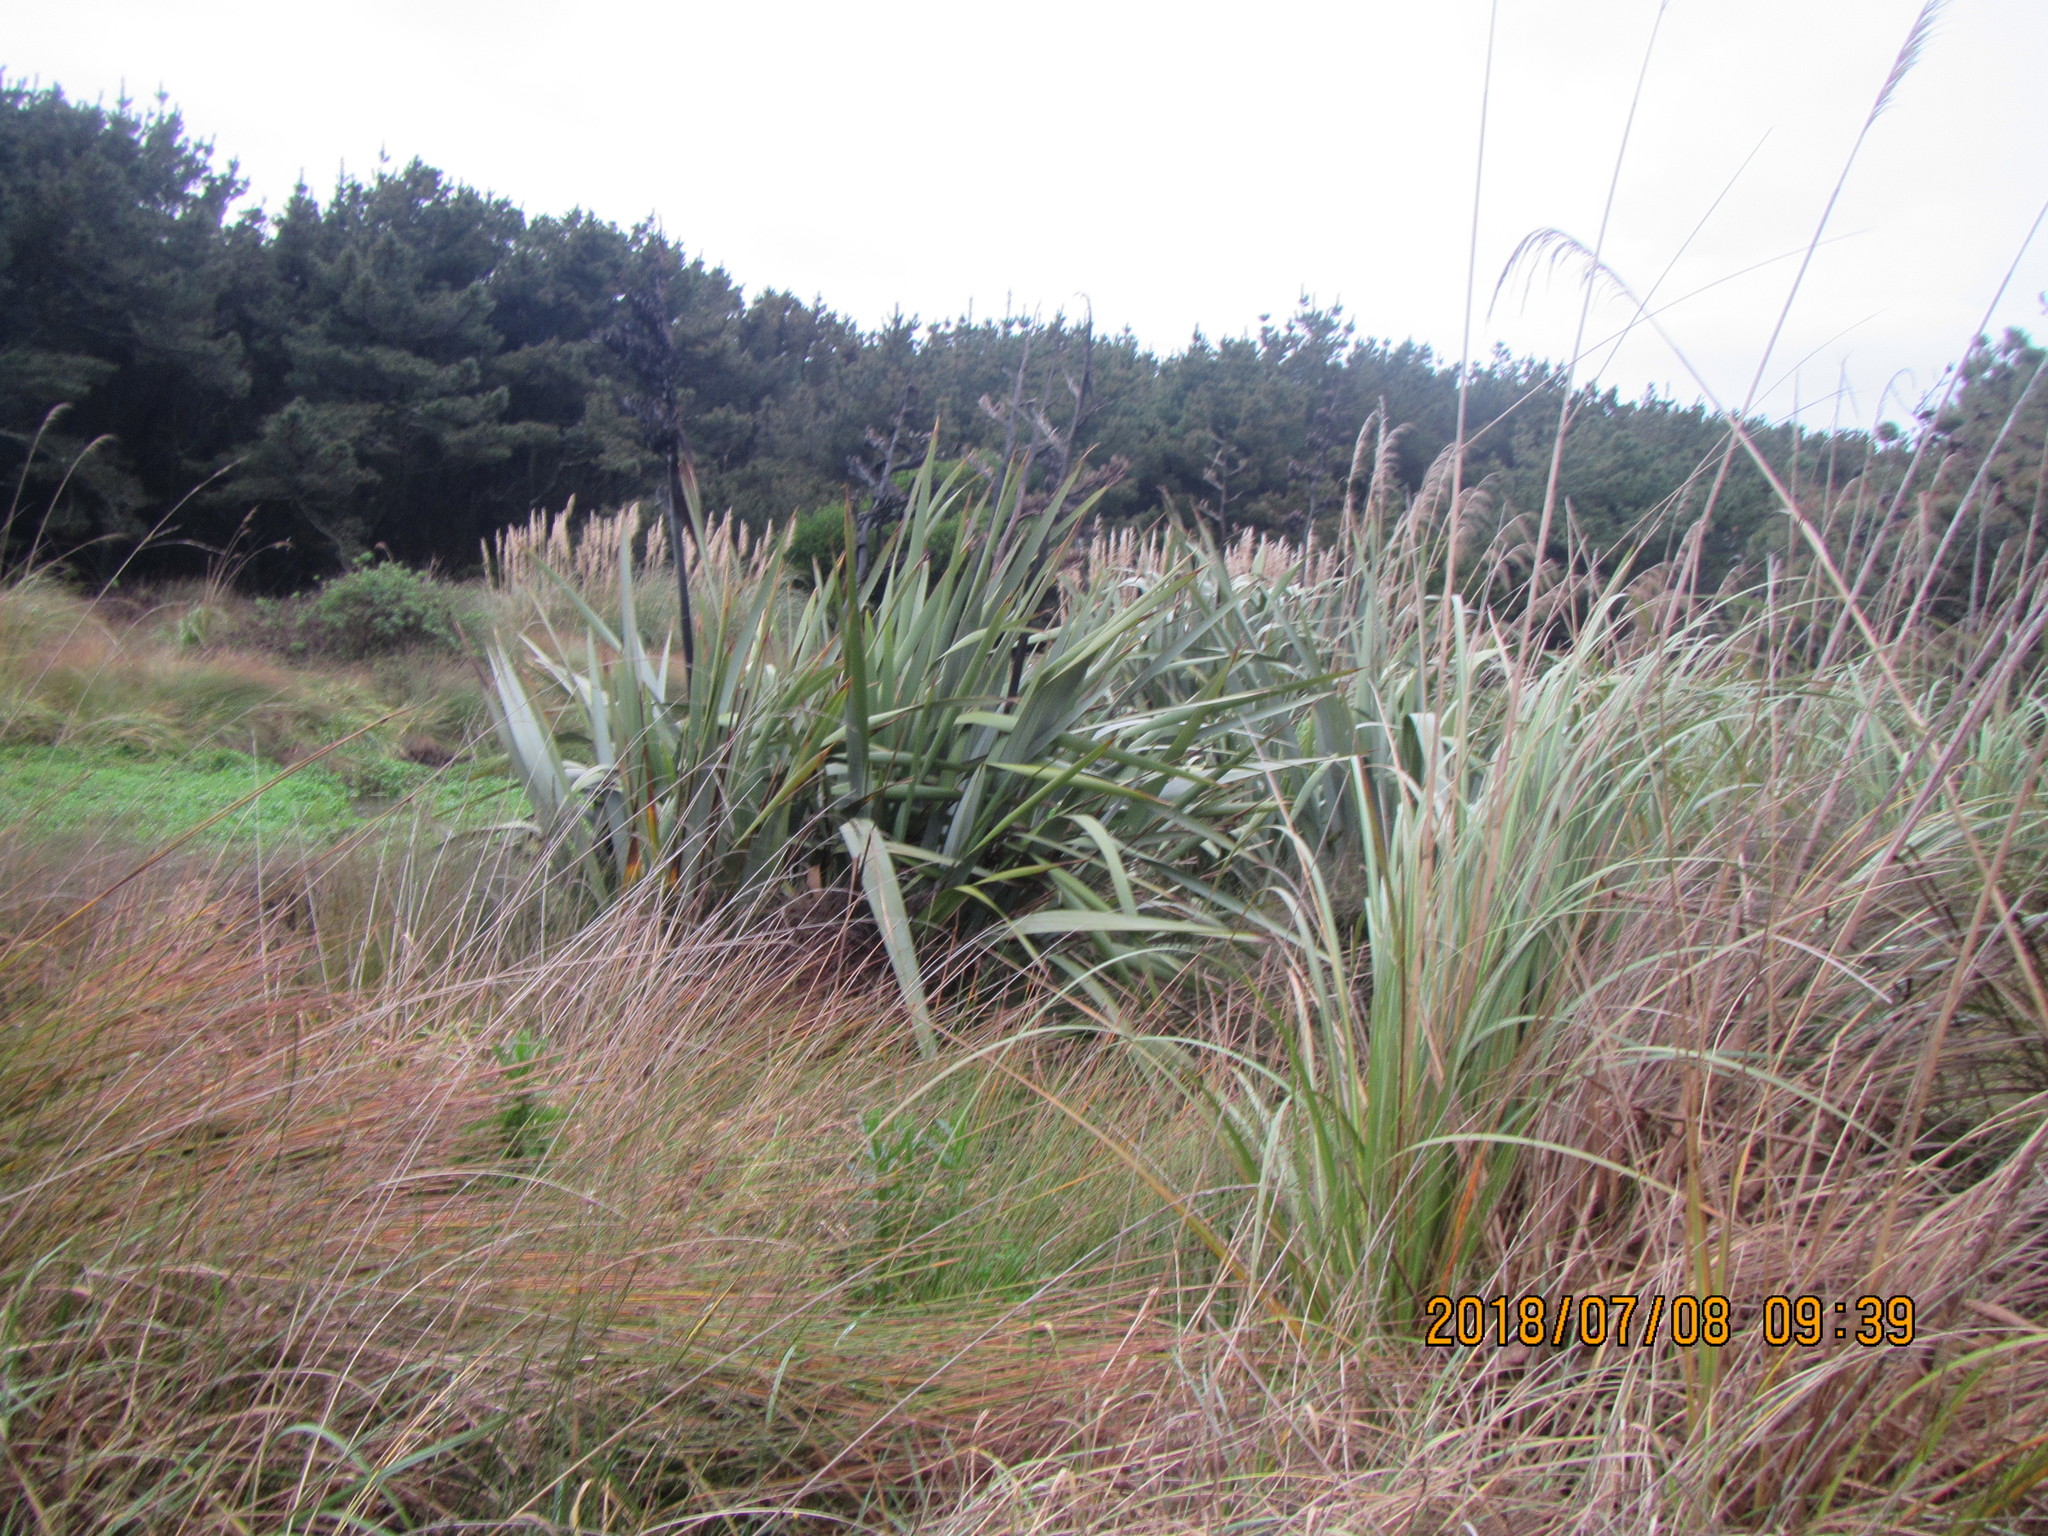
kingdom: Plantae
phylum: Tracheophyta
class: Liliopsida
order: Asparagales
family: Asphodelaceae
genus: Phormium
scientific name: Phormium tenax
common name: New zealand flax
